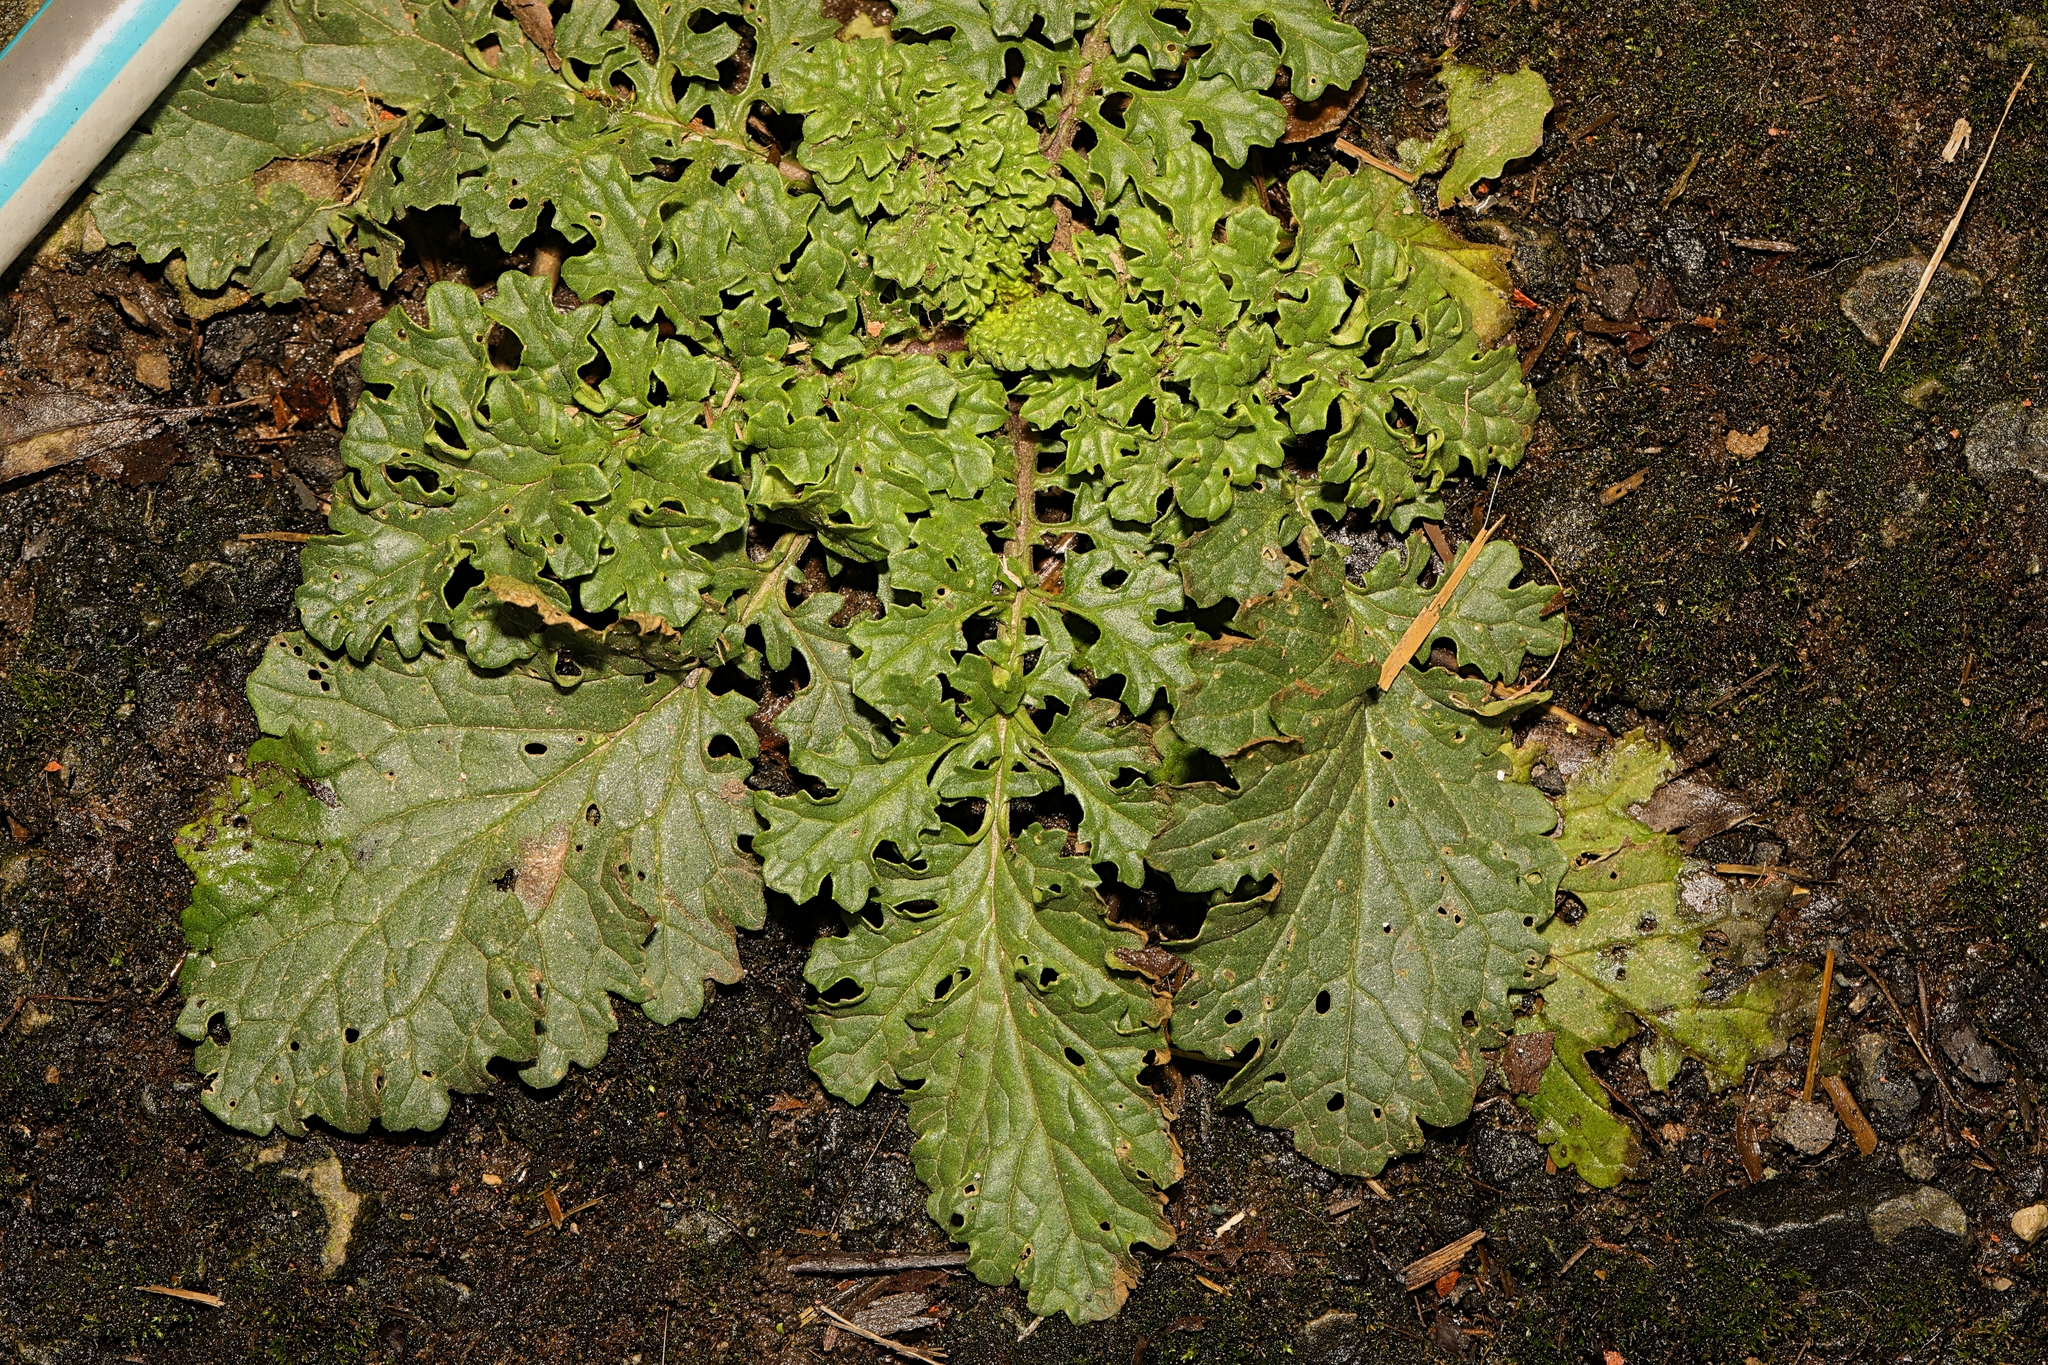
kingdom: Plantae
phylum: Tracheophyta
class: Magnoliopsida
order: Asterales
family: Asteraceae
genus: Jacobaea
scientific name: Jacobaea vulgaris
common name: Stinking willie
